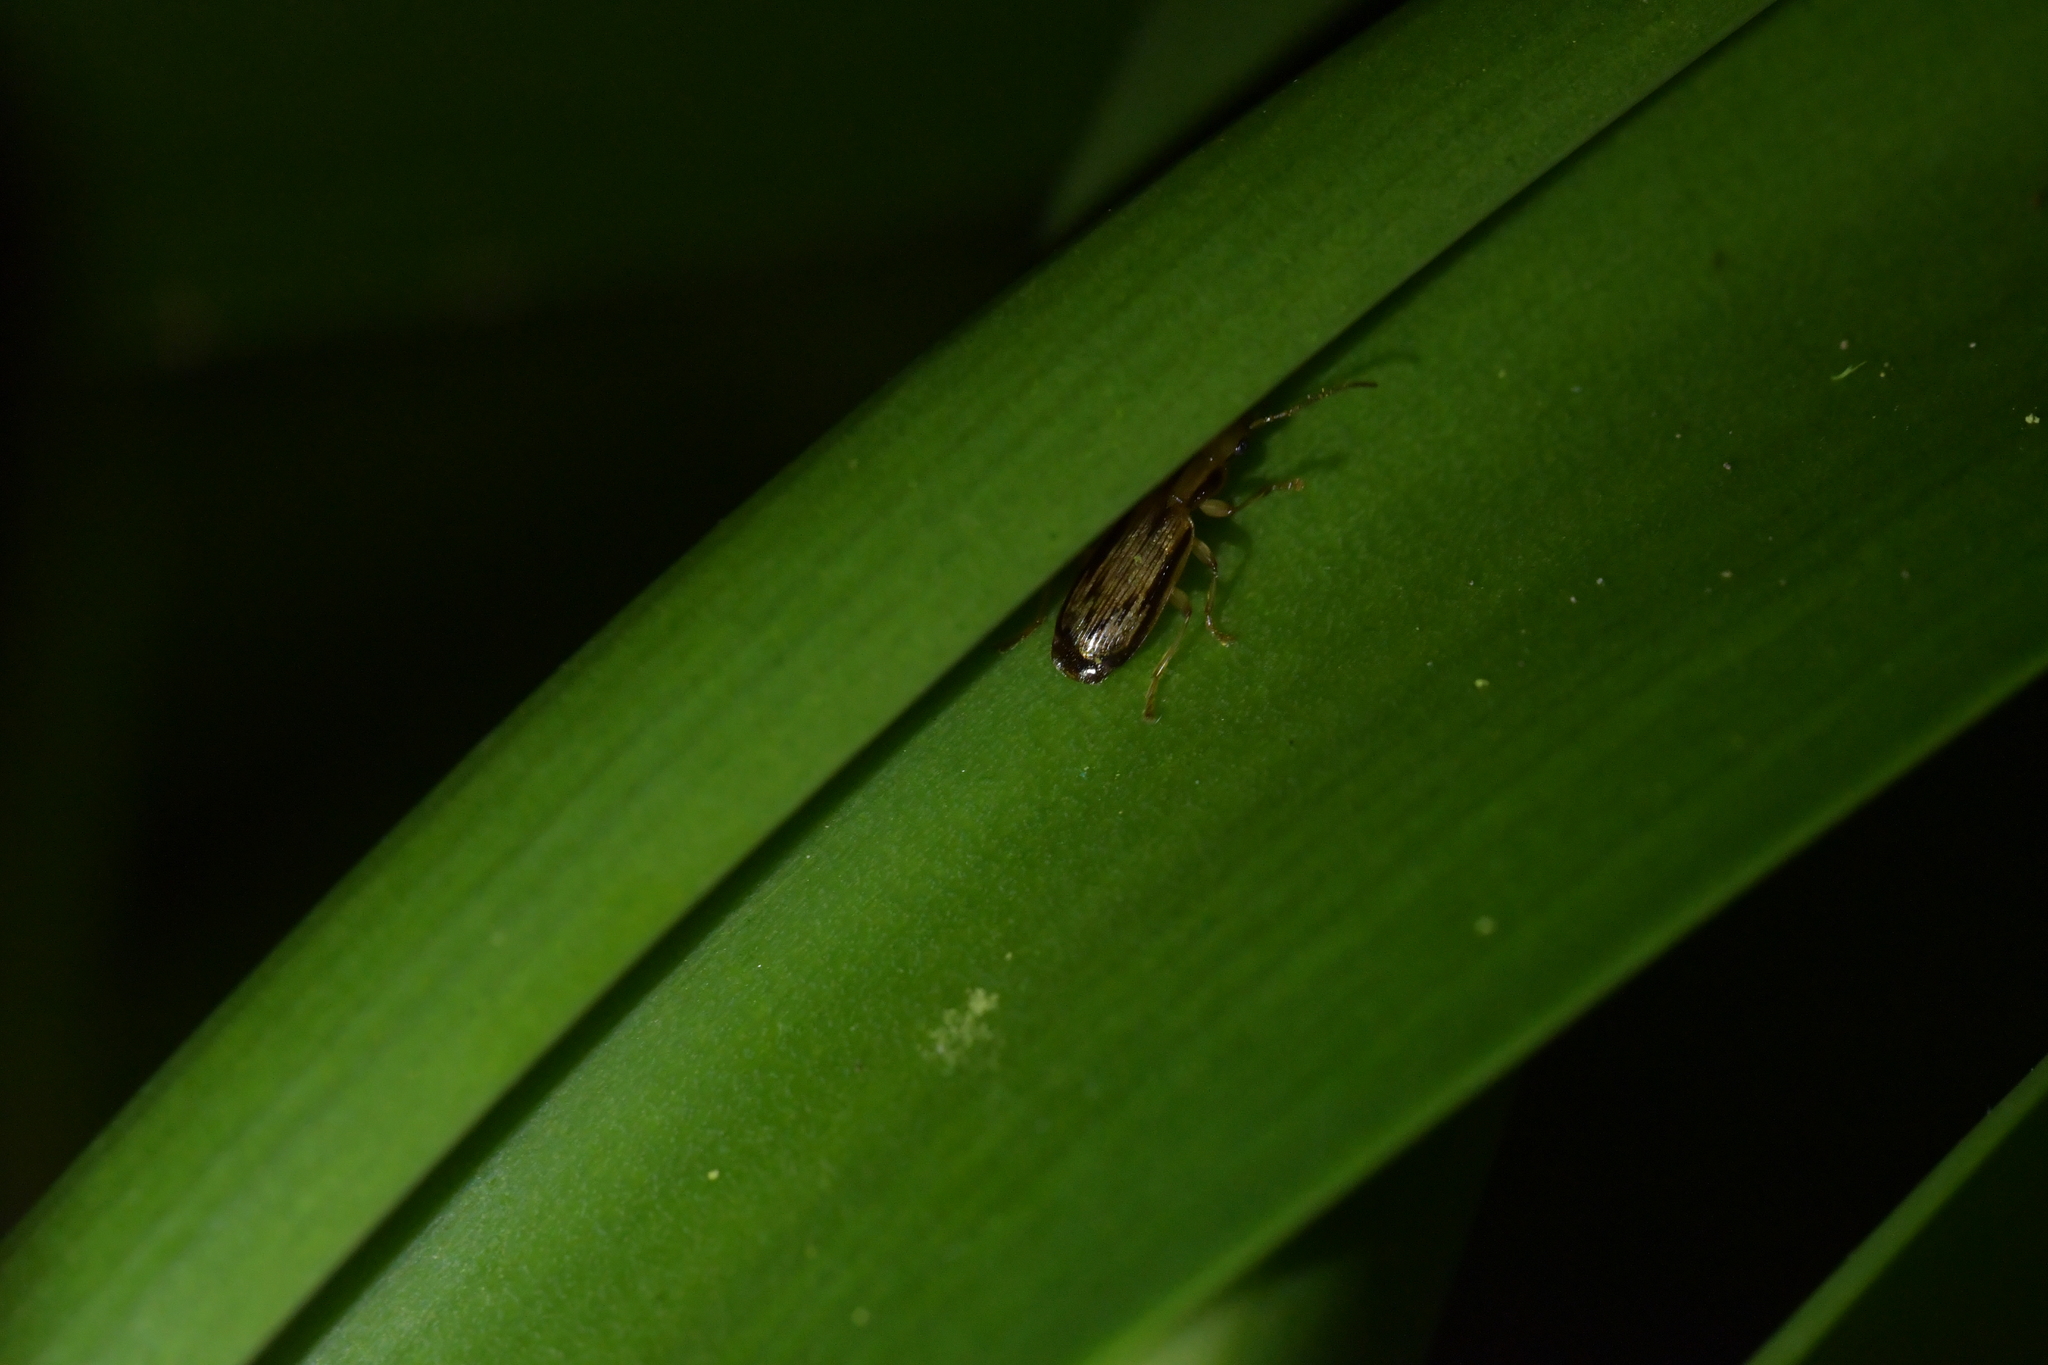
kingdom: Animalia
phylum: Arthropoda
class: Insecta
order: Coleoptera
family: Carabidae
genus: Demetrida
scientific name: Demetrida lineella
